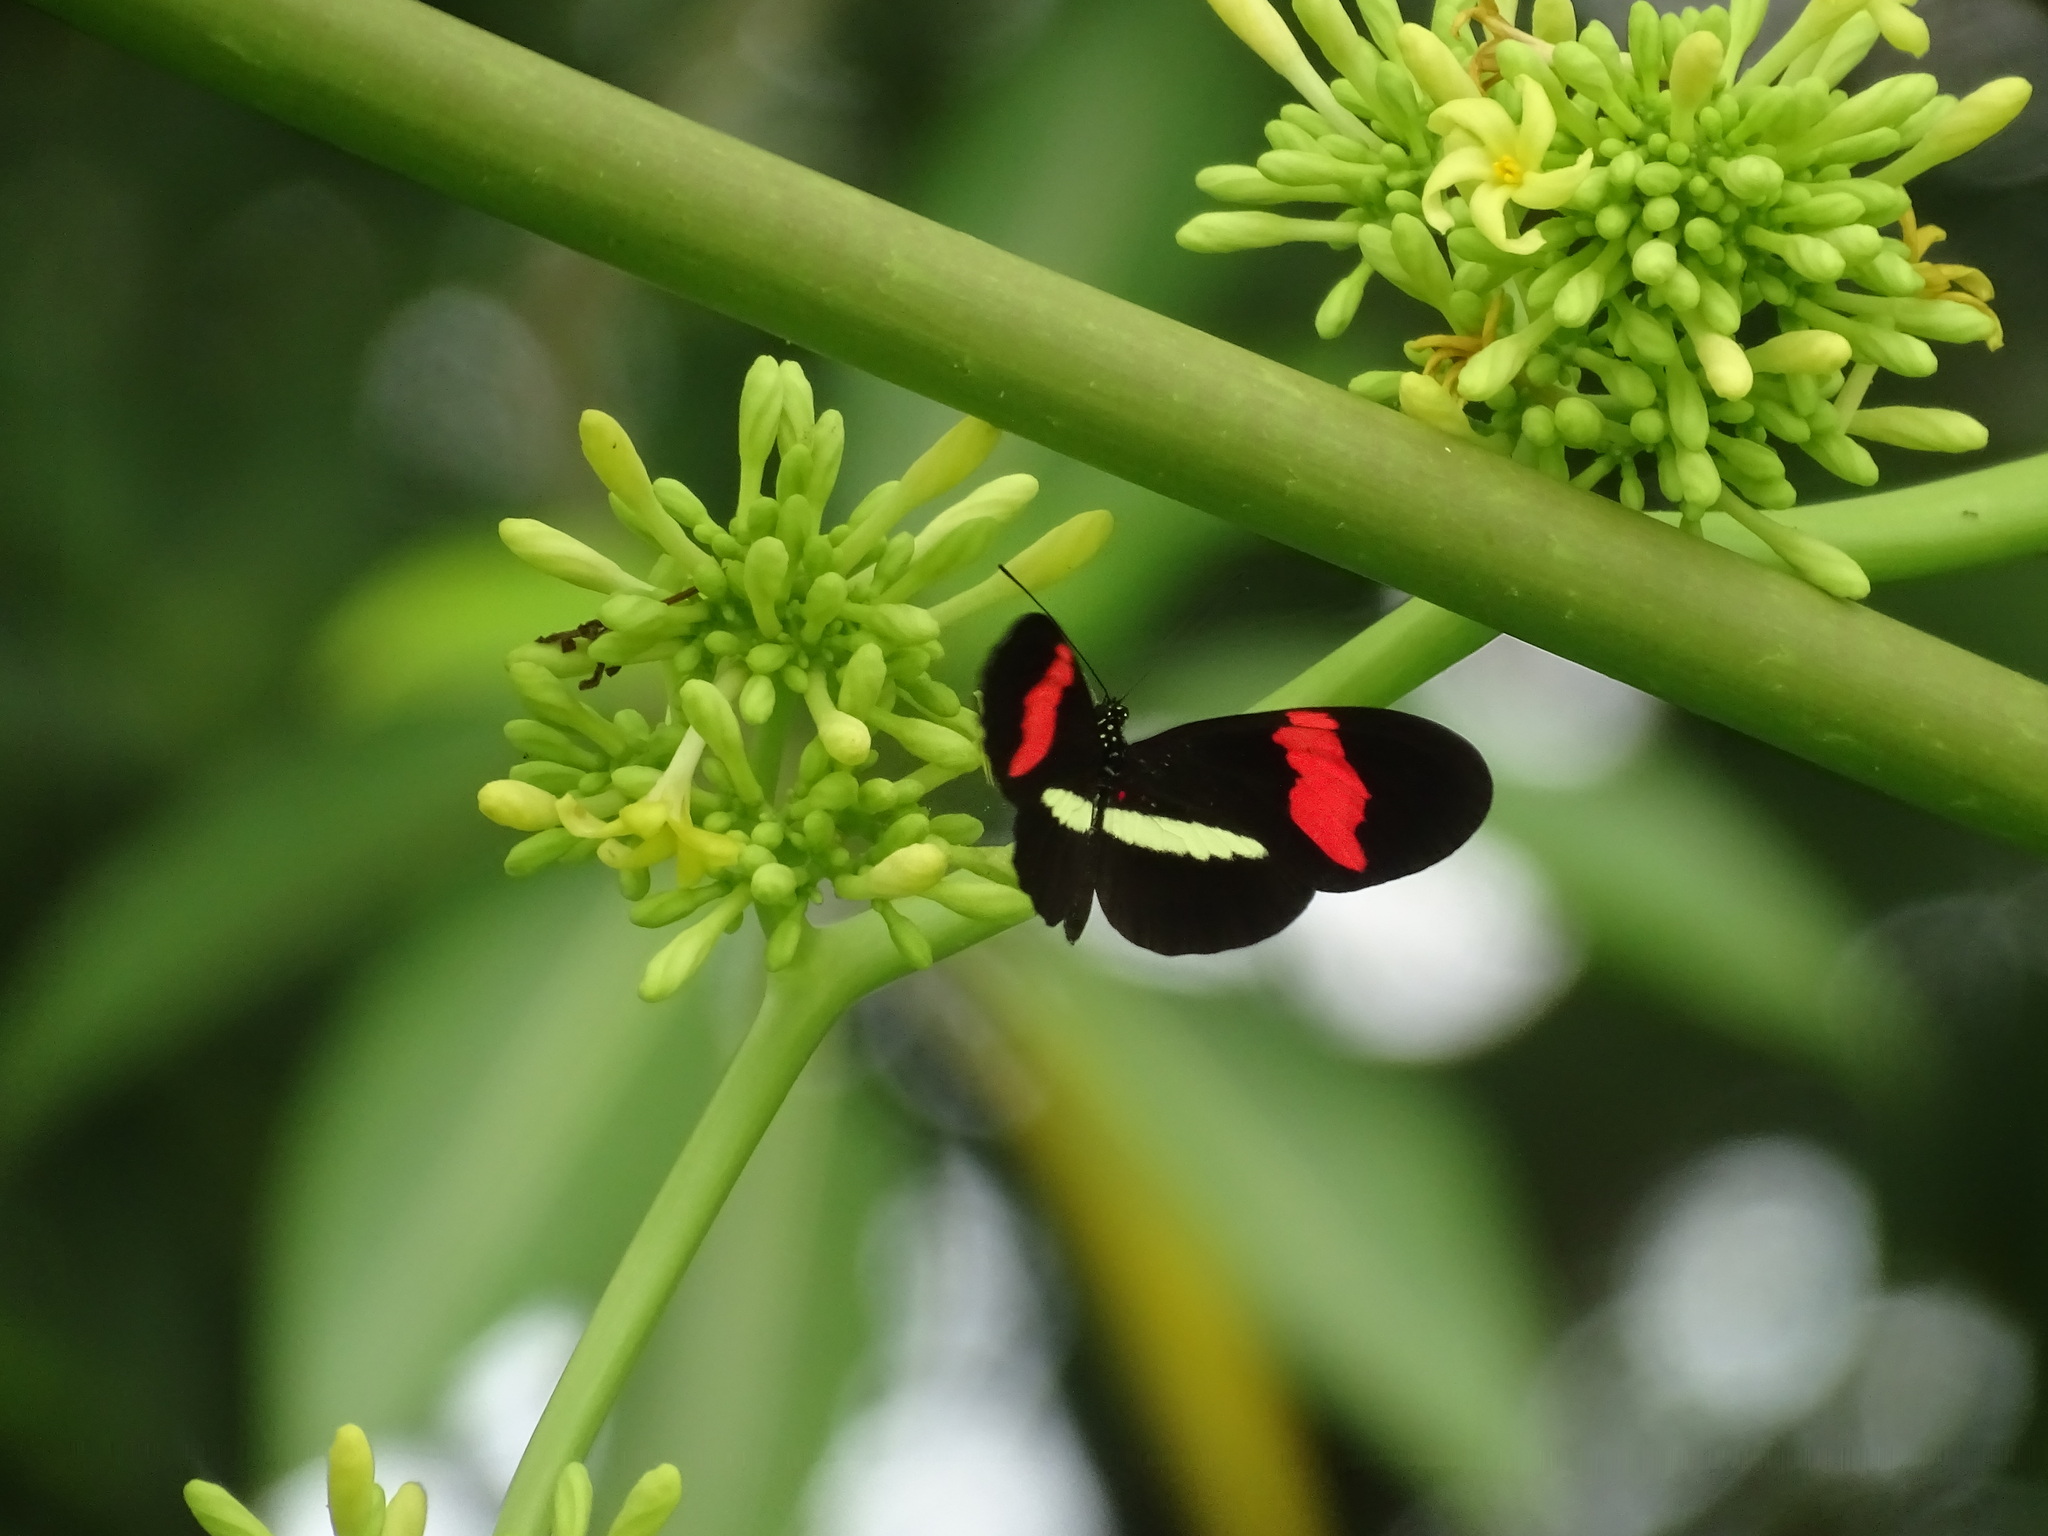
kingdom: Animalia
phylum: Arthropoda
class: Insecta
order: Lepidoptera
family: Nymphalidae
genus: Heliconius
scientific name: Heliconius erato
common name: Common patch longwing
